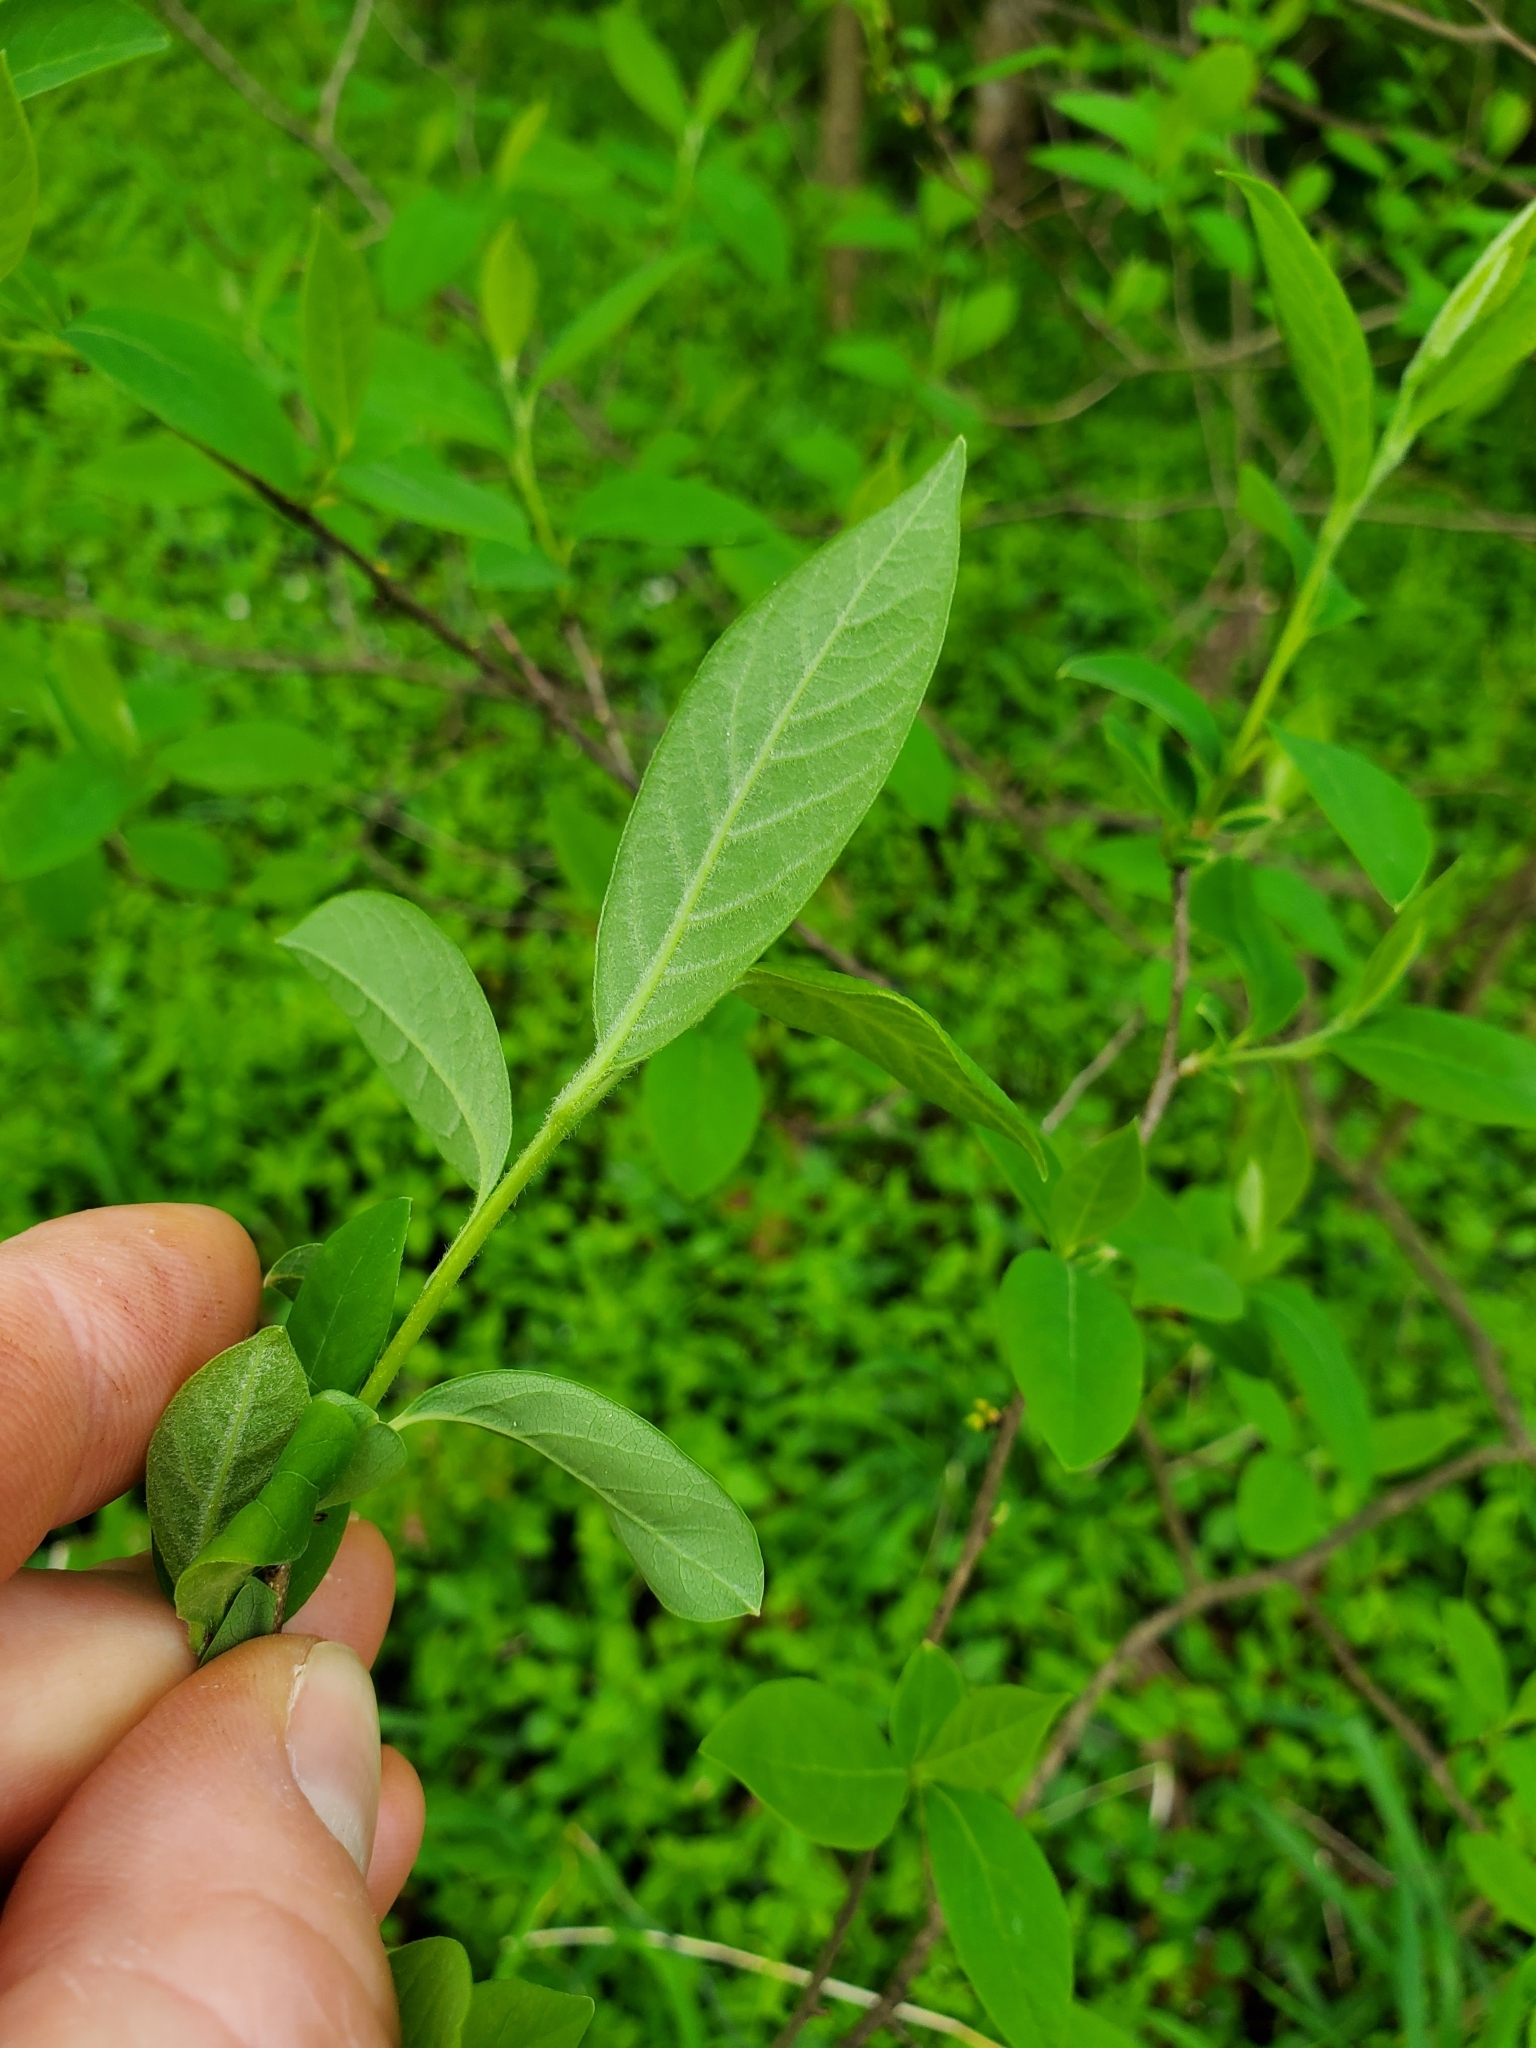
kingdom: Plantae
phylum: Tracheophyta
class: Magnoliopsida
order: Laurales
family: Lauraceae
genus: Lindera
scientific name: Lindera benzoin
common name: Spicebush
